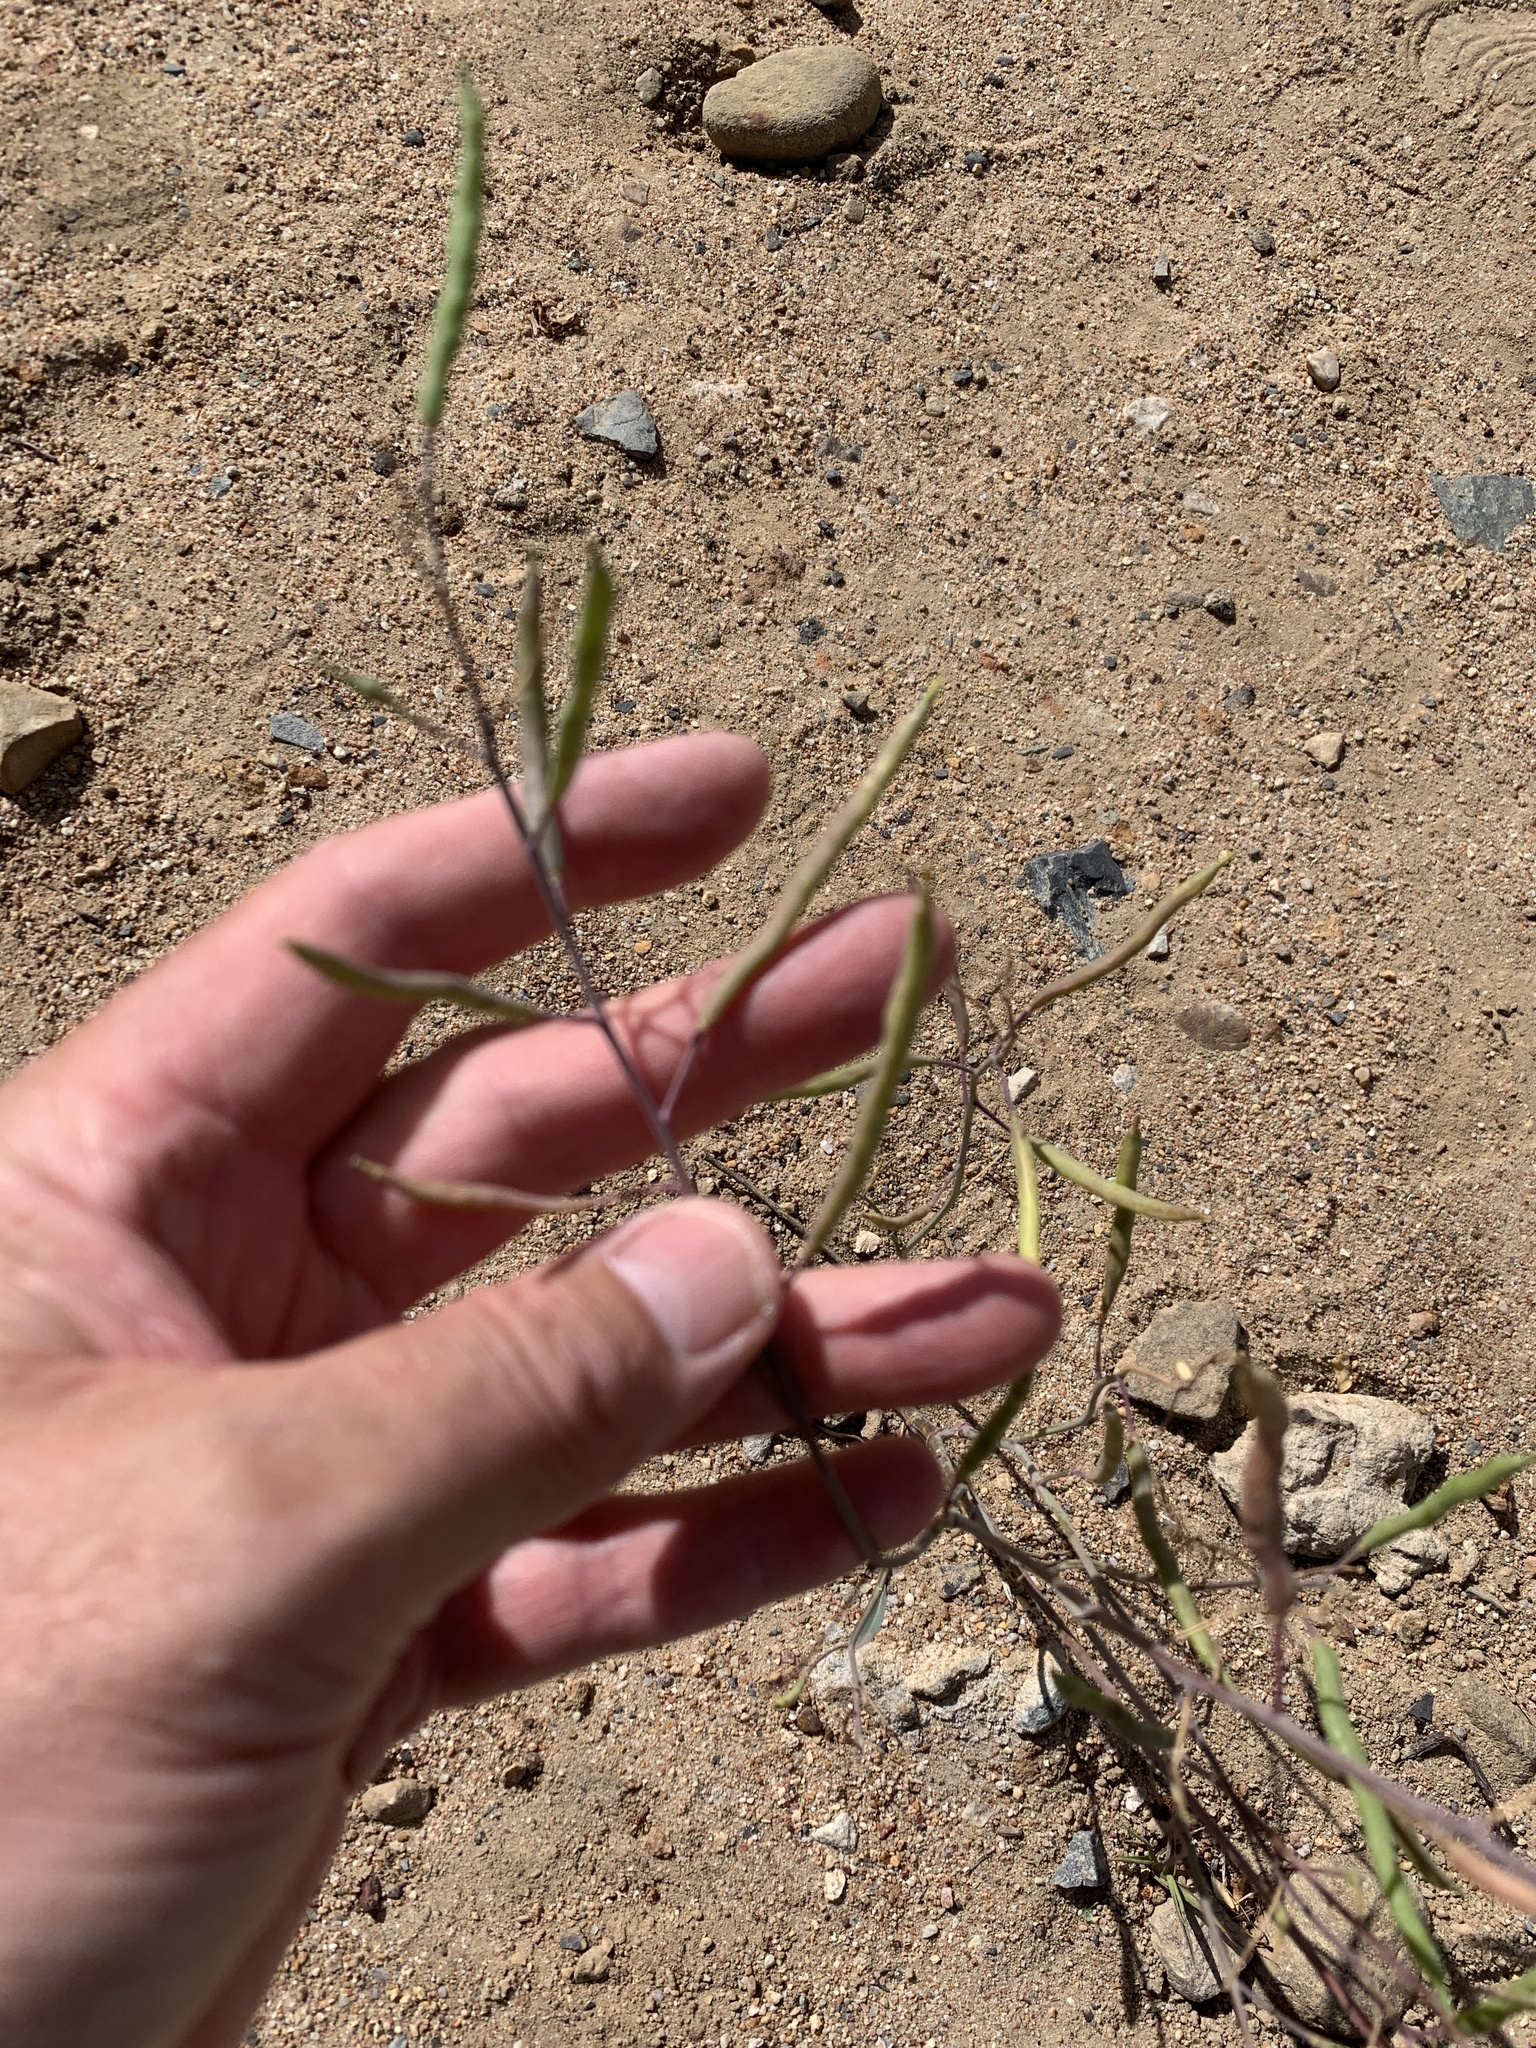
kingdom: Plantae
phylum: Tracheophyta
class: Magnoliopsida
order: Brassicales
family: Brassicaceae
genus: Raphanus
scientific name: Raphanus raphanistrum
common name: Wild radish
